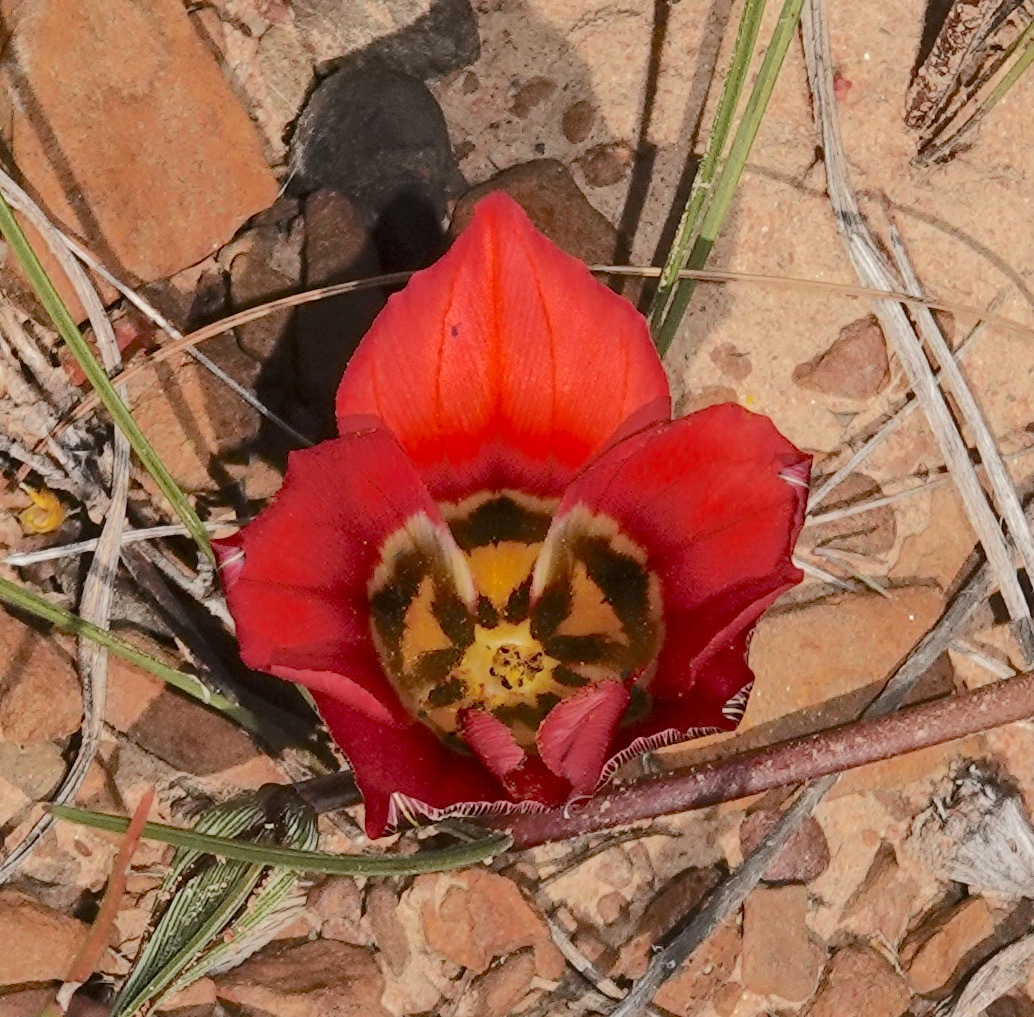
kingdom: Plantae
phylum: Tracheophyta
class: Liliopsida
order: Asparagales
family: Iridaceae
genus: Romulea
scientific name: Romulea sabulosa
